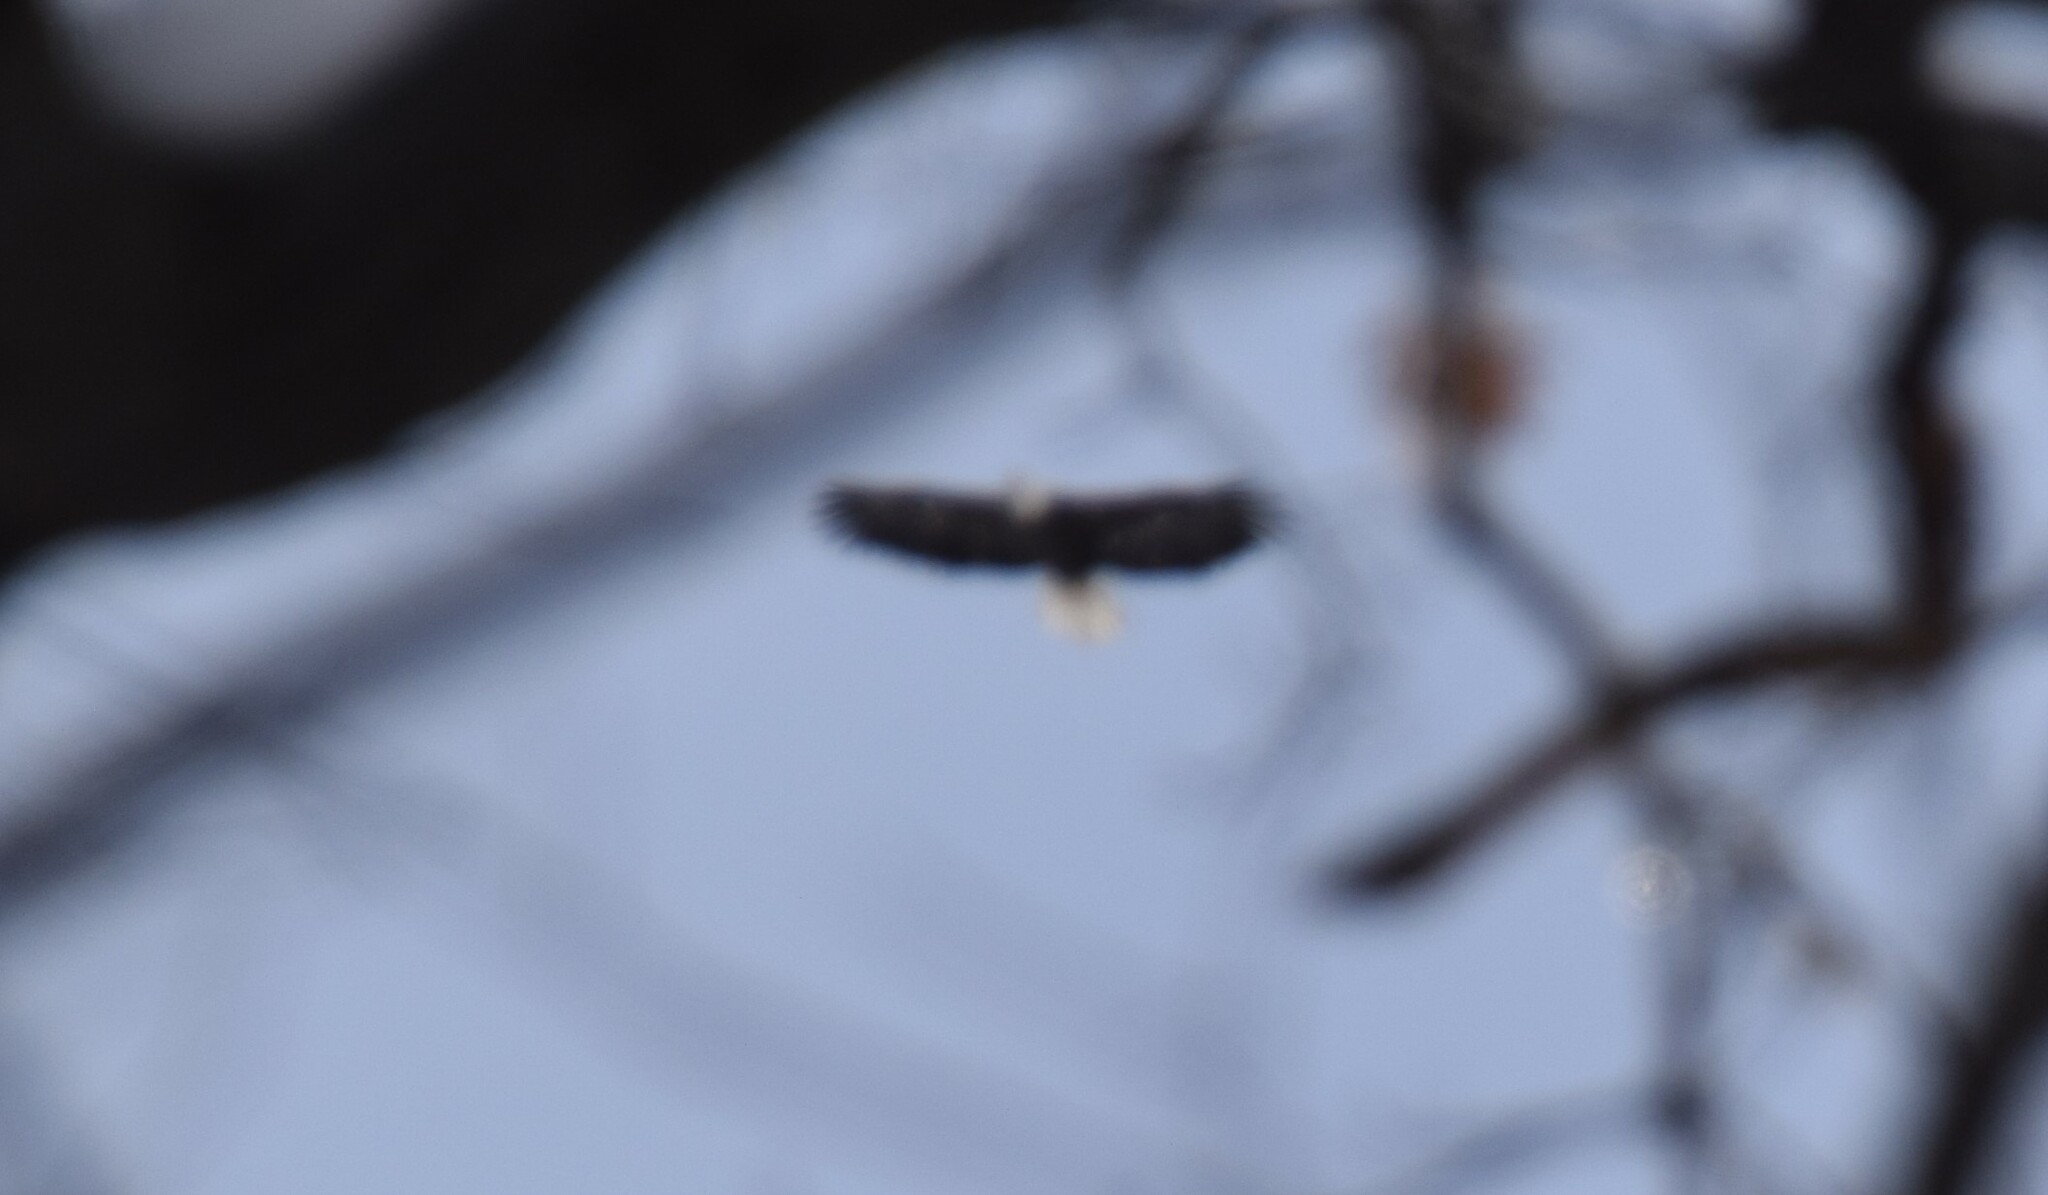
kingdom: Animalia
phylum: Chordata
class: Aves
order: Accipitriformes
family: Accipitridae
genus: Haliaeetus
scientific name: Haliaeetus leucocephalus
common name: Bald eagle
